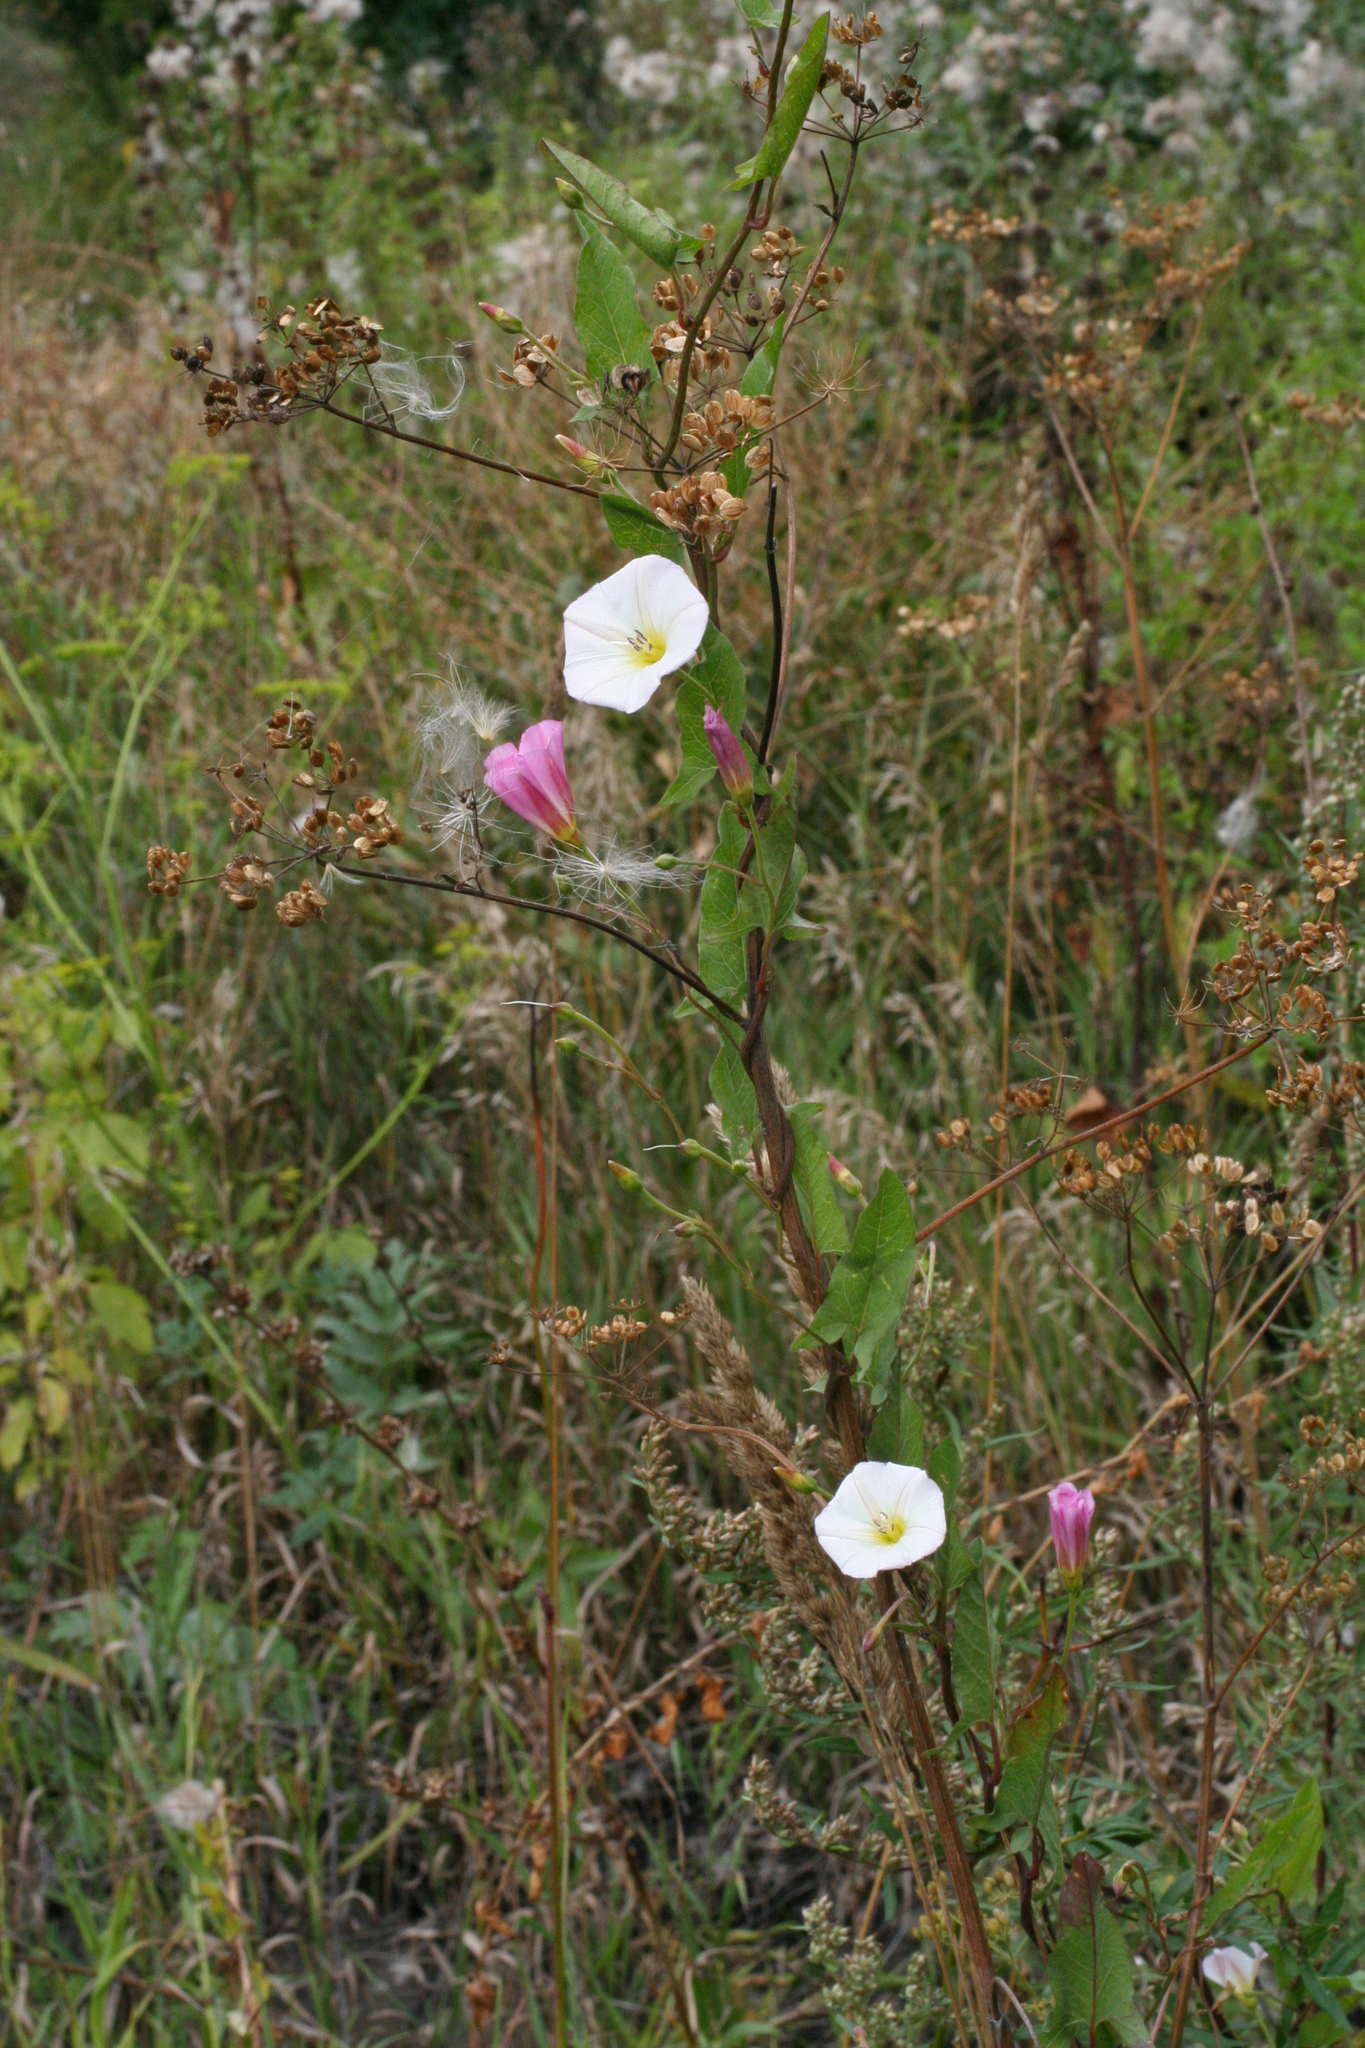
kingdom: Plantae
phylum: Tracheophyta
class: Magnoliopsida
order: Solanales
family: Convolvulaceae
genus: Convolvulus
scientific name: Convolvulus arvensis
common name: Field bindweed
